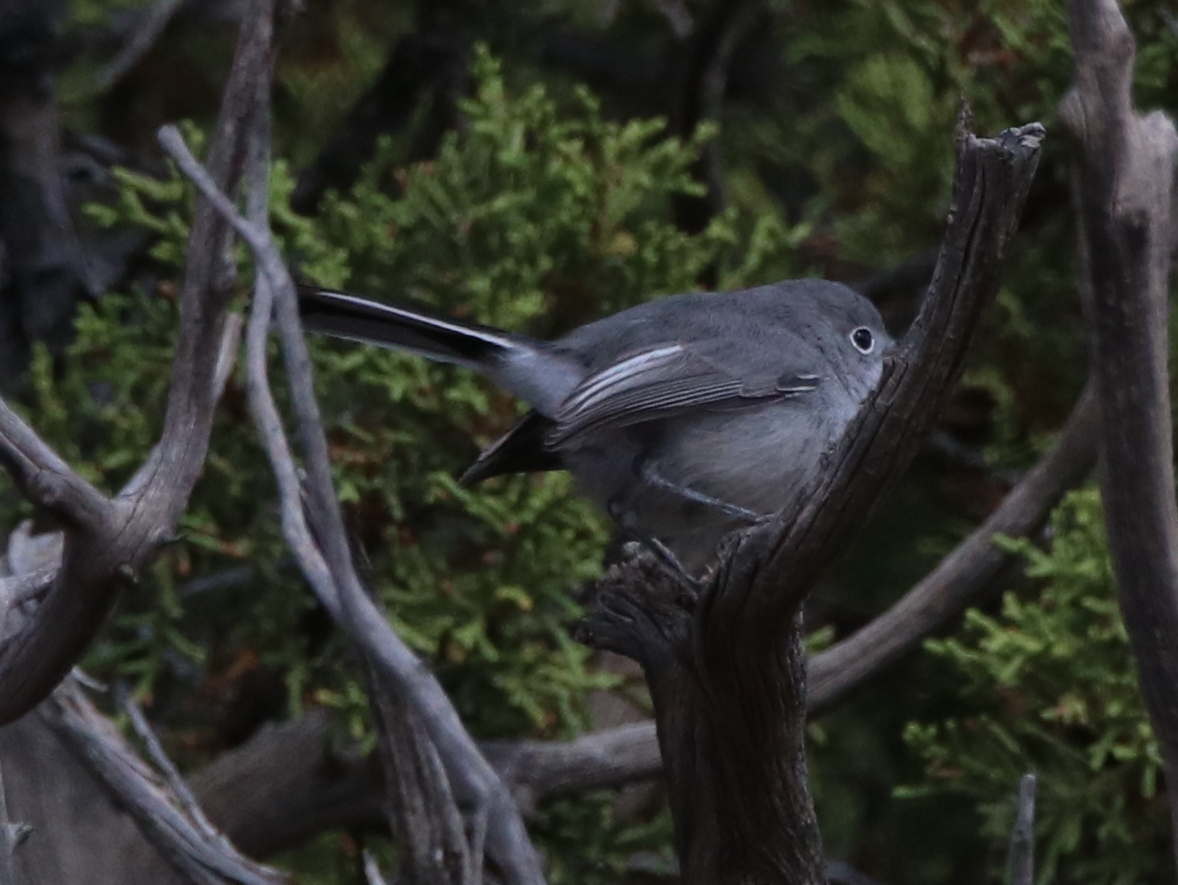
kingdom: Animalia
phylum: Chordata
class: Aves
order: Passeriformes
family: Polioptilidae
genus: Polioptila
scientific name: Polioptila caerulea
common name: Blue-gray gnatcatcher
